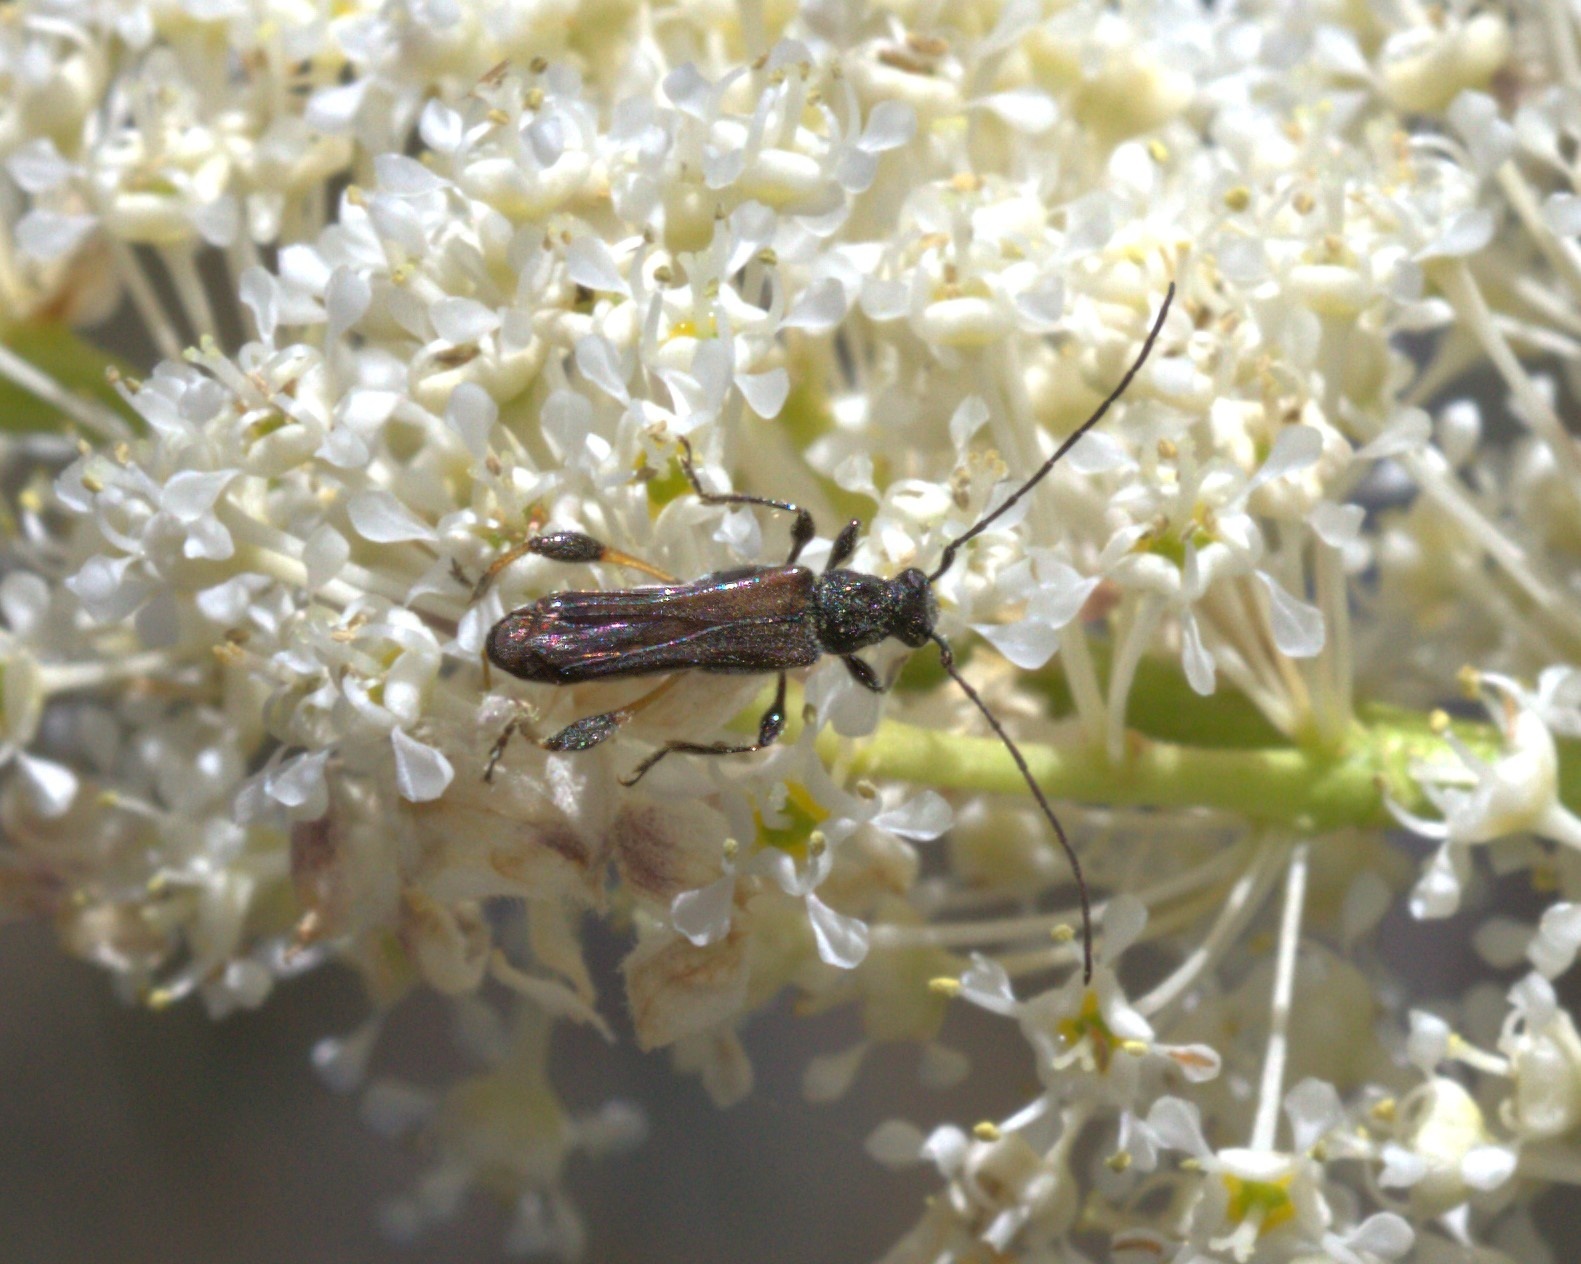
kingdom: Animalia
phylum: Arthropoda
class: Insecta
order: Coleoptera
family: Cerambycidae
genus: Callimoxys
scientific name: Callimoxys fuscipennis
